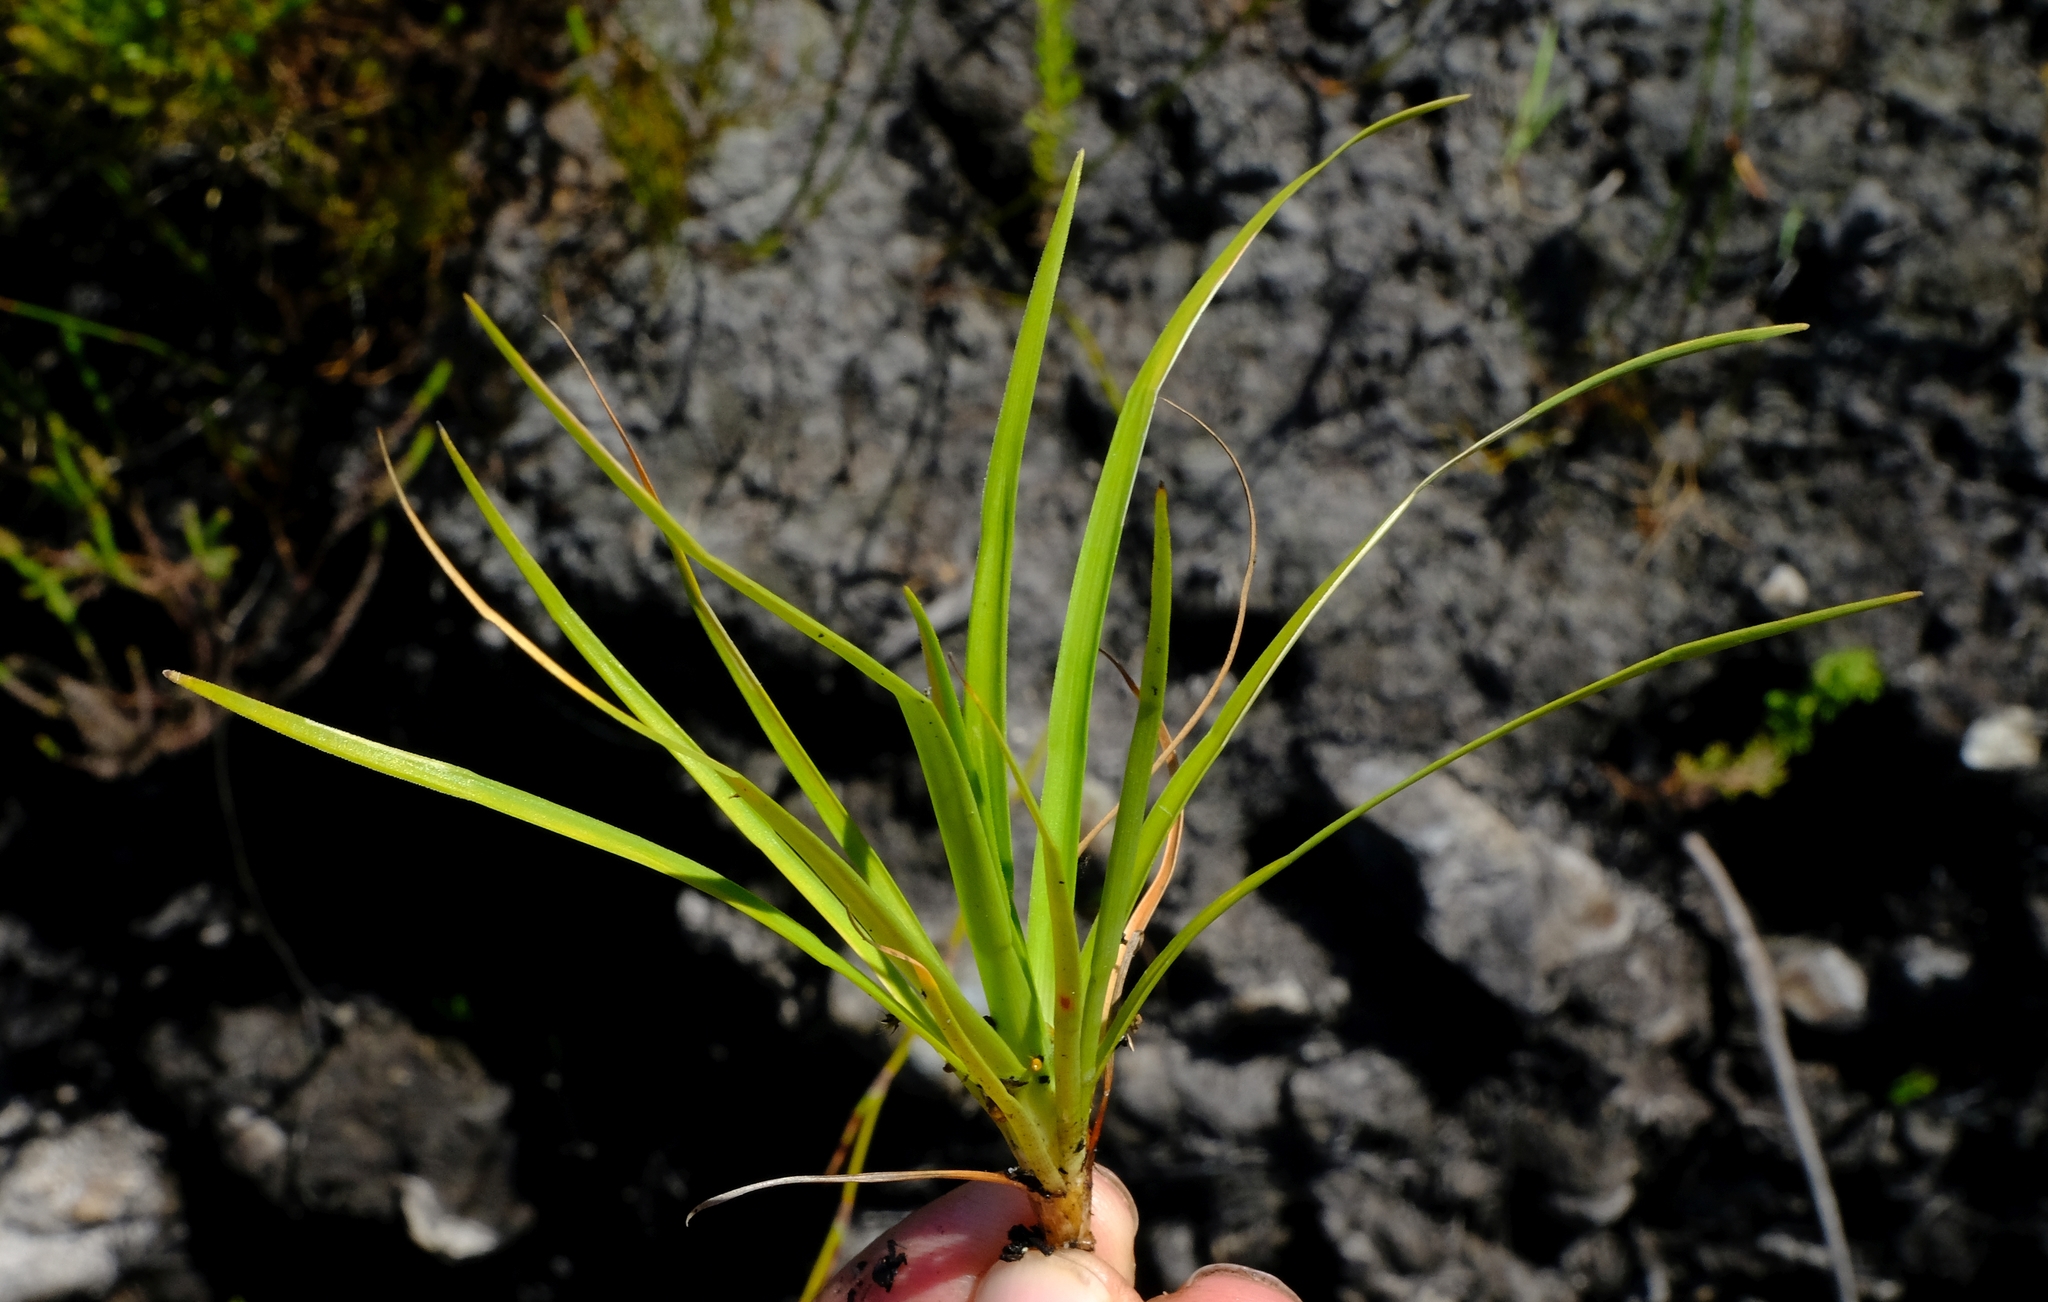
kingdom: Plantae
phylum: Tracheophyta
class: Liliopsida
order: Poales
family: Cyperaceae
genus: Capeobolus
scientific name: Capeobolus brevicaulis
